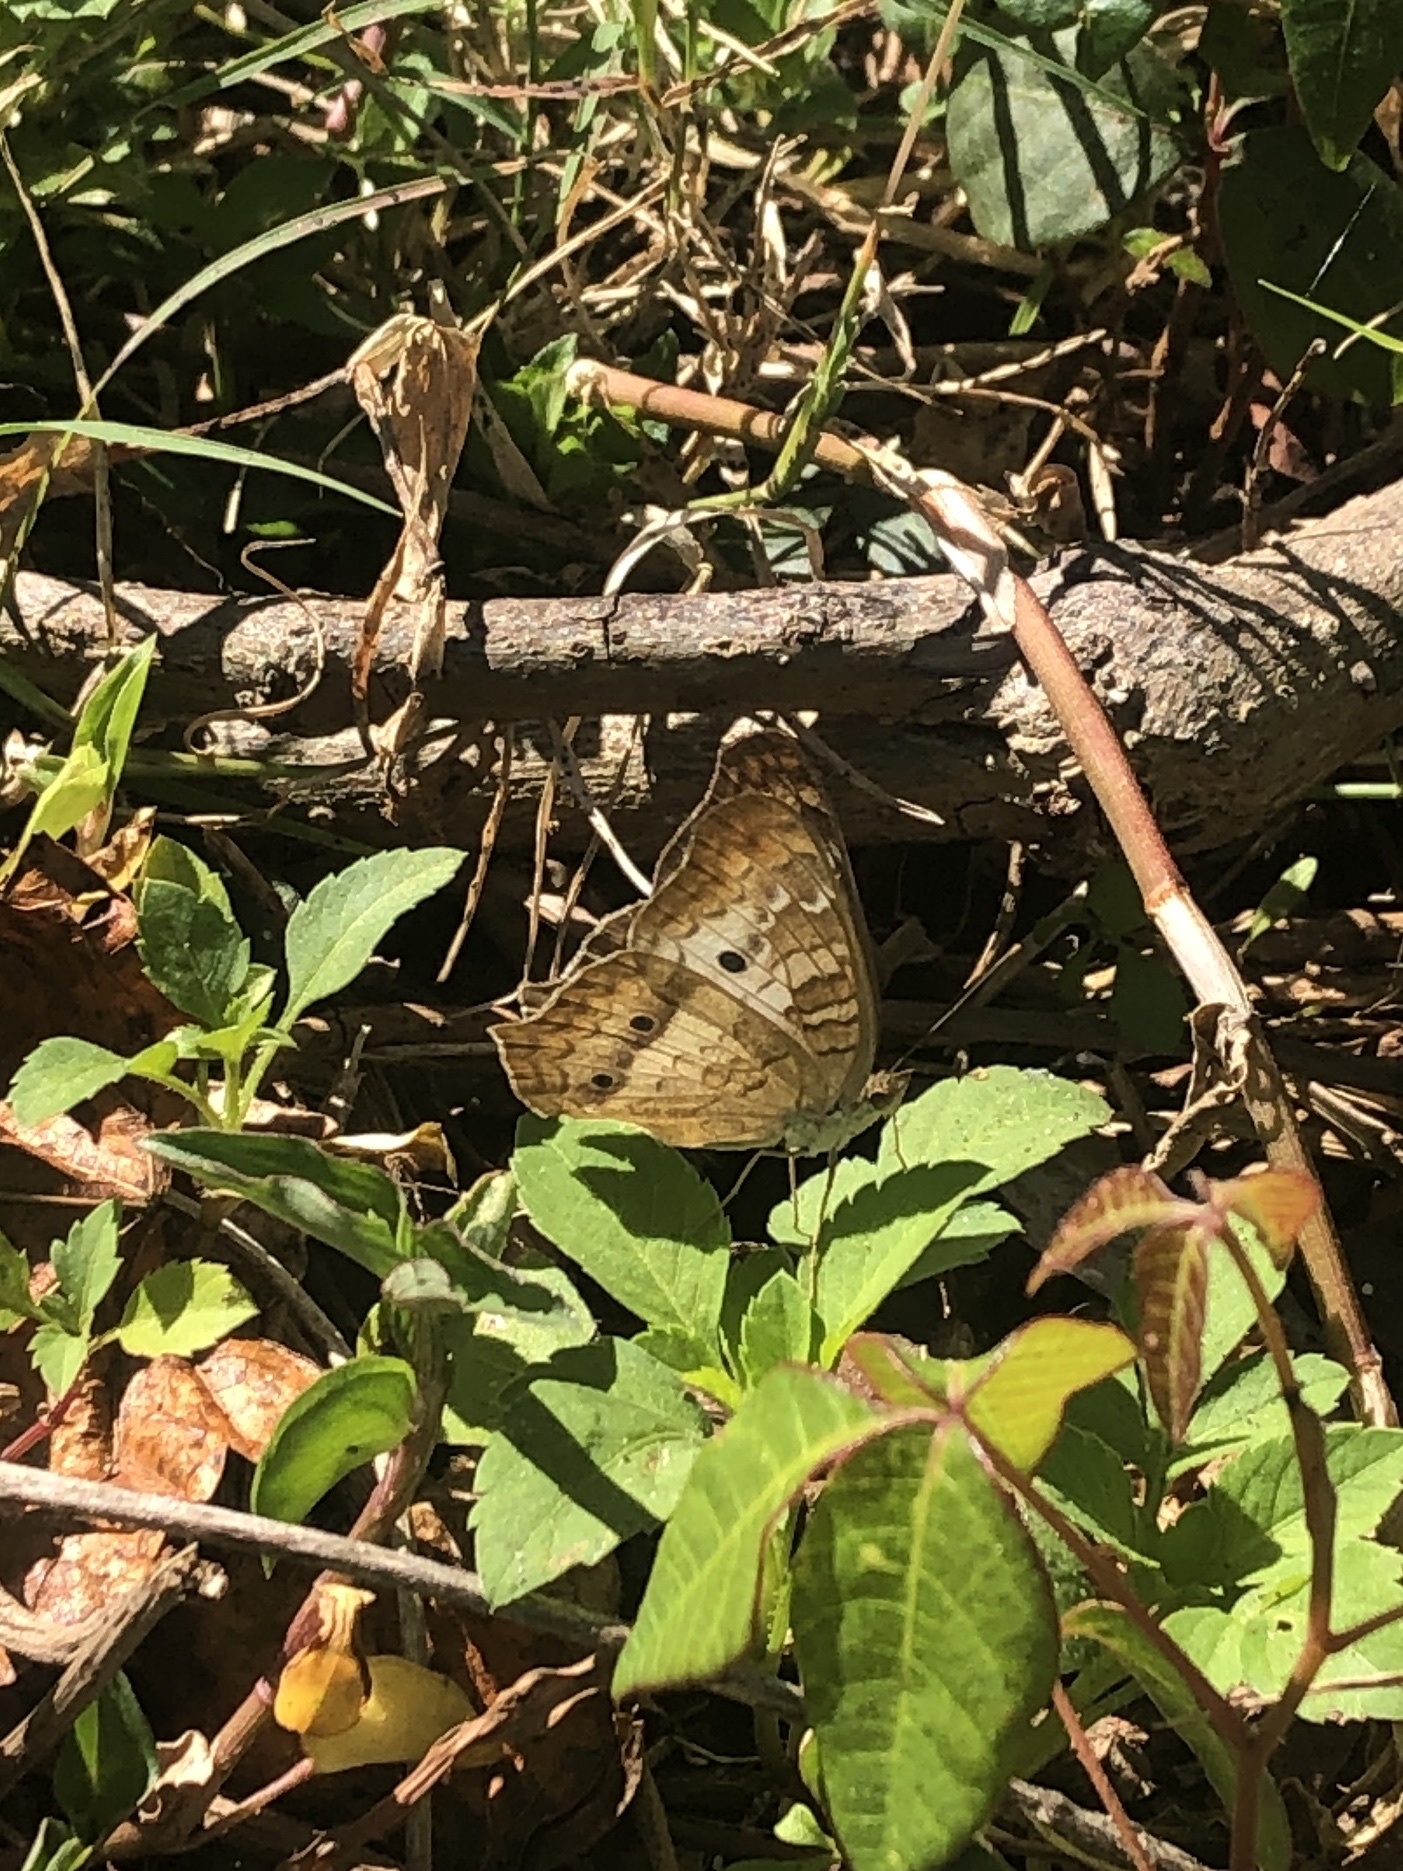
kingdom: Animalia
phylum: Arthropoda
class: Insecta
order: Lepidoptera
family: Nymphalidae
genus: Anartia
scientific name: Anartia jatrophae
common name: White peacock
